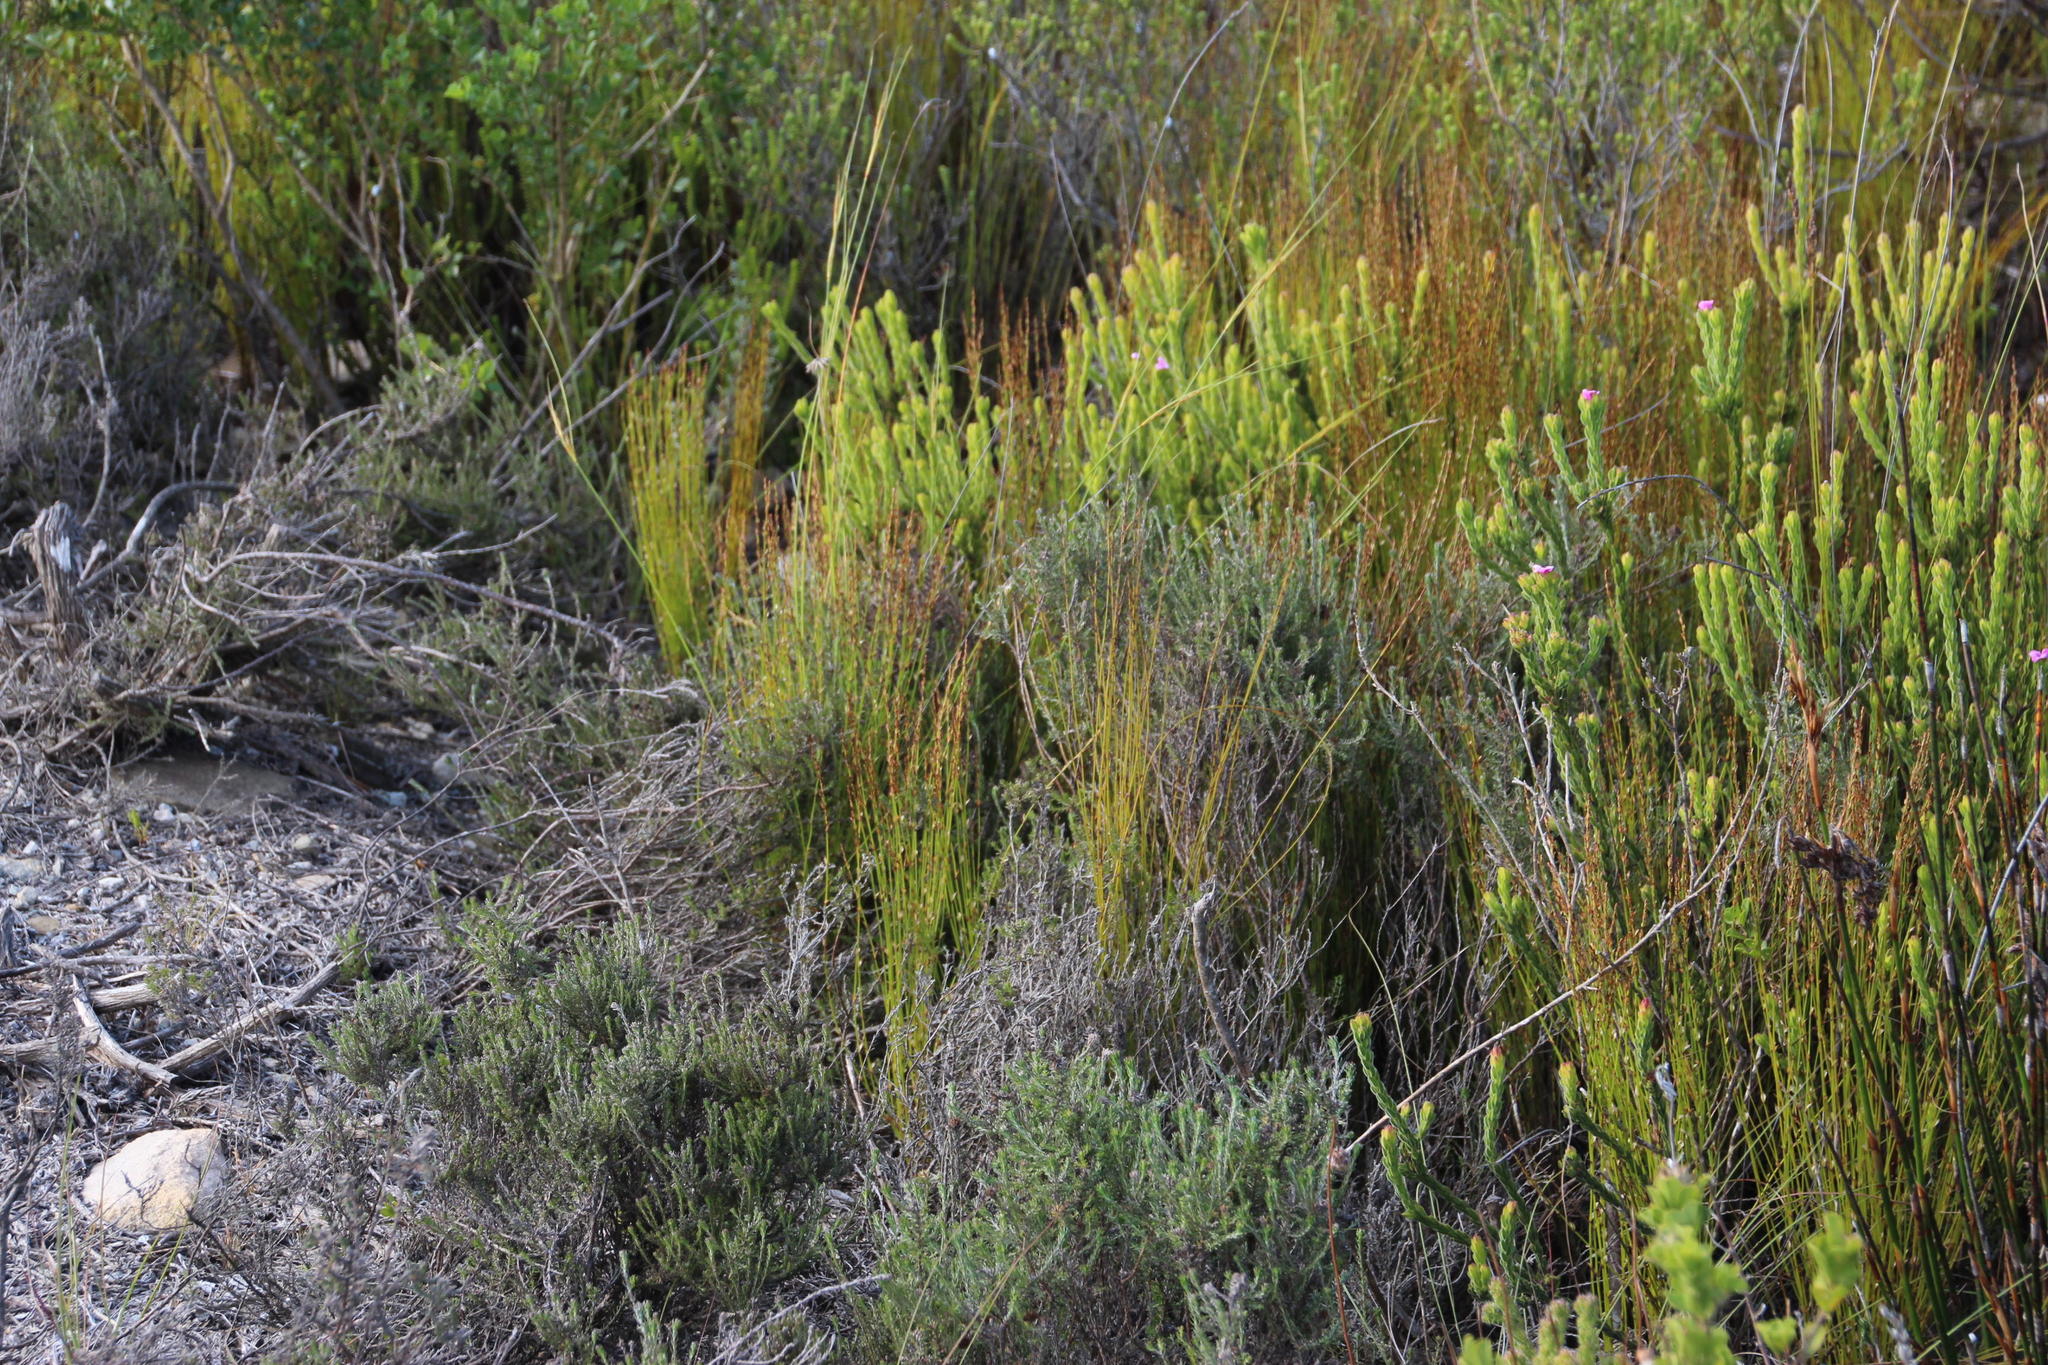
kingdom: Plantae
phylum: Tracheophyta
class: Liliopsida
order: Poales
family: Restionaceae
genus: Elegia
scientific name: Elegia microcarpa
